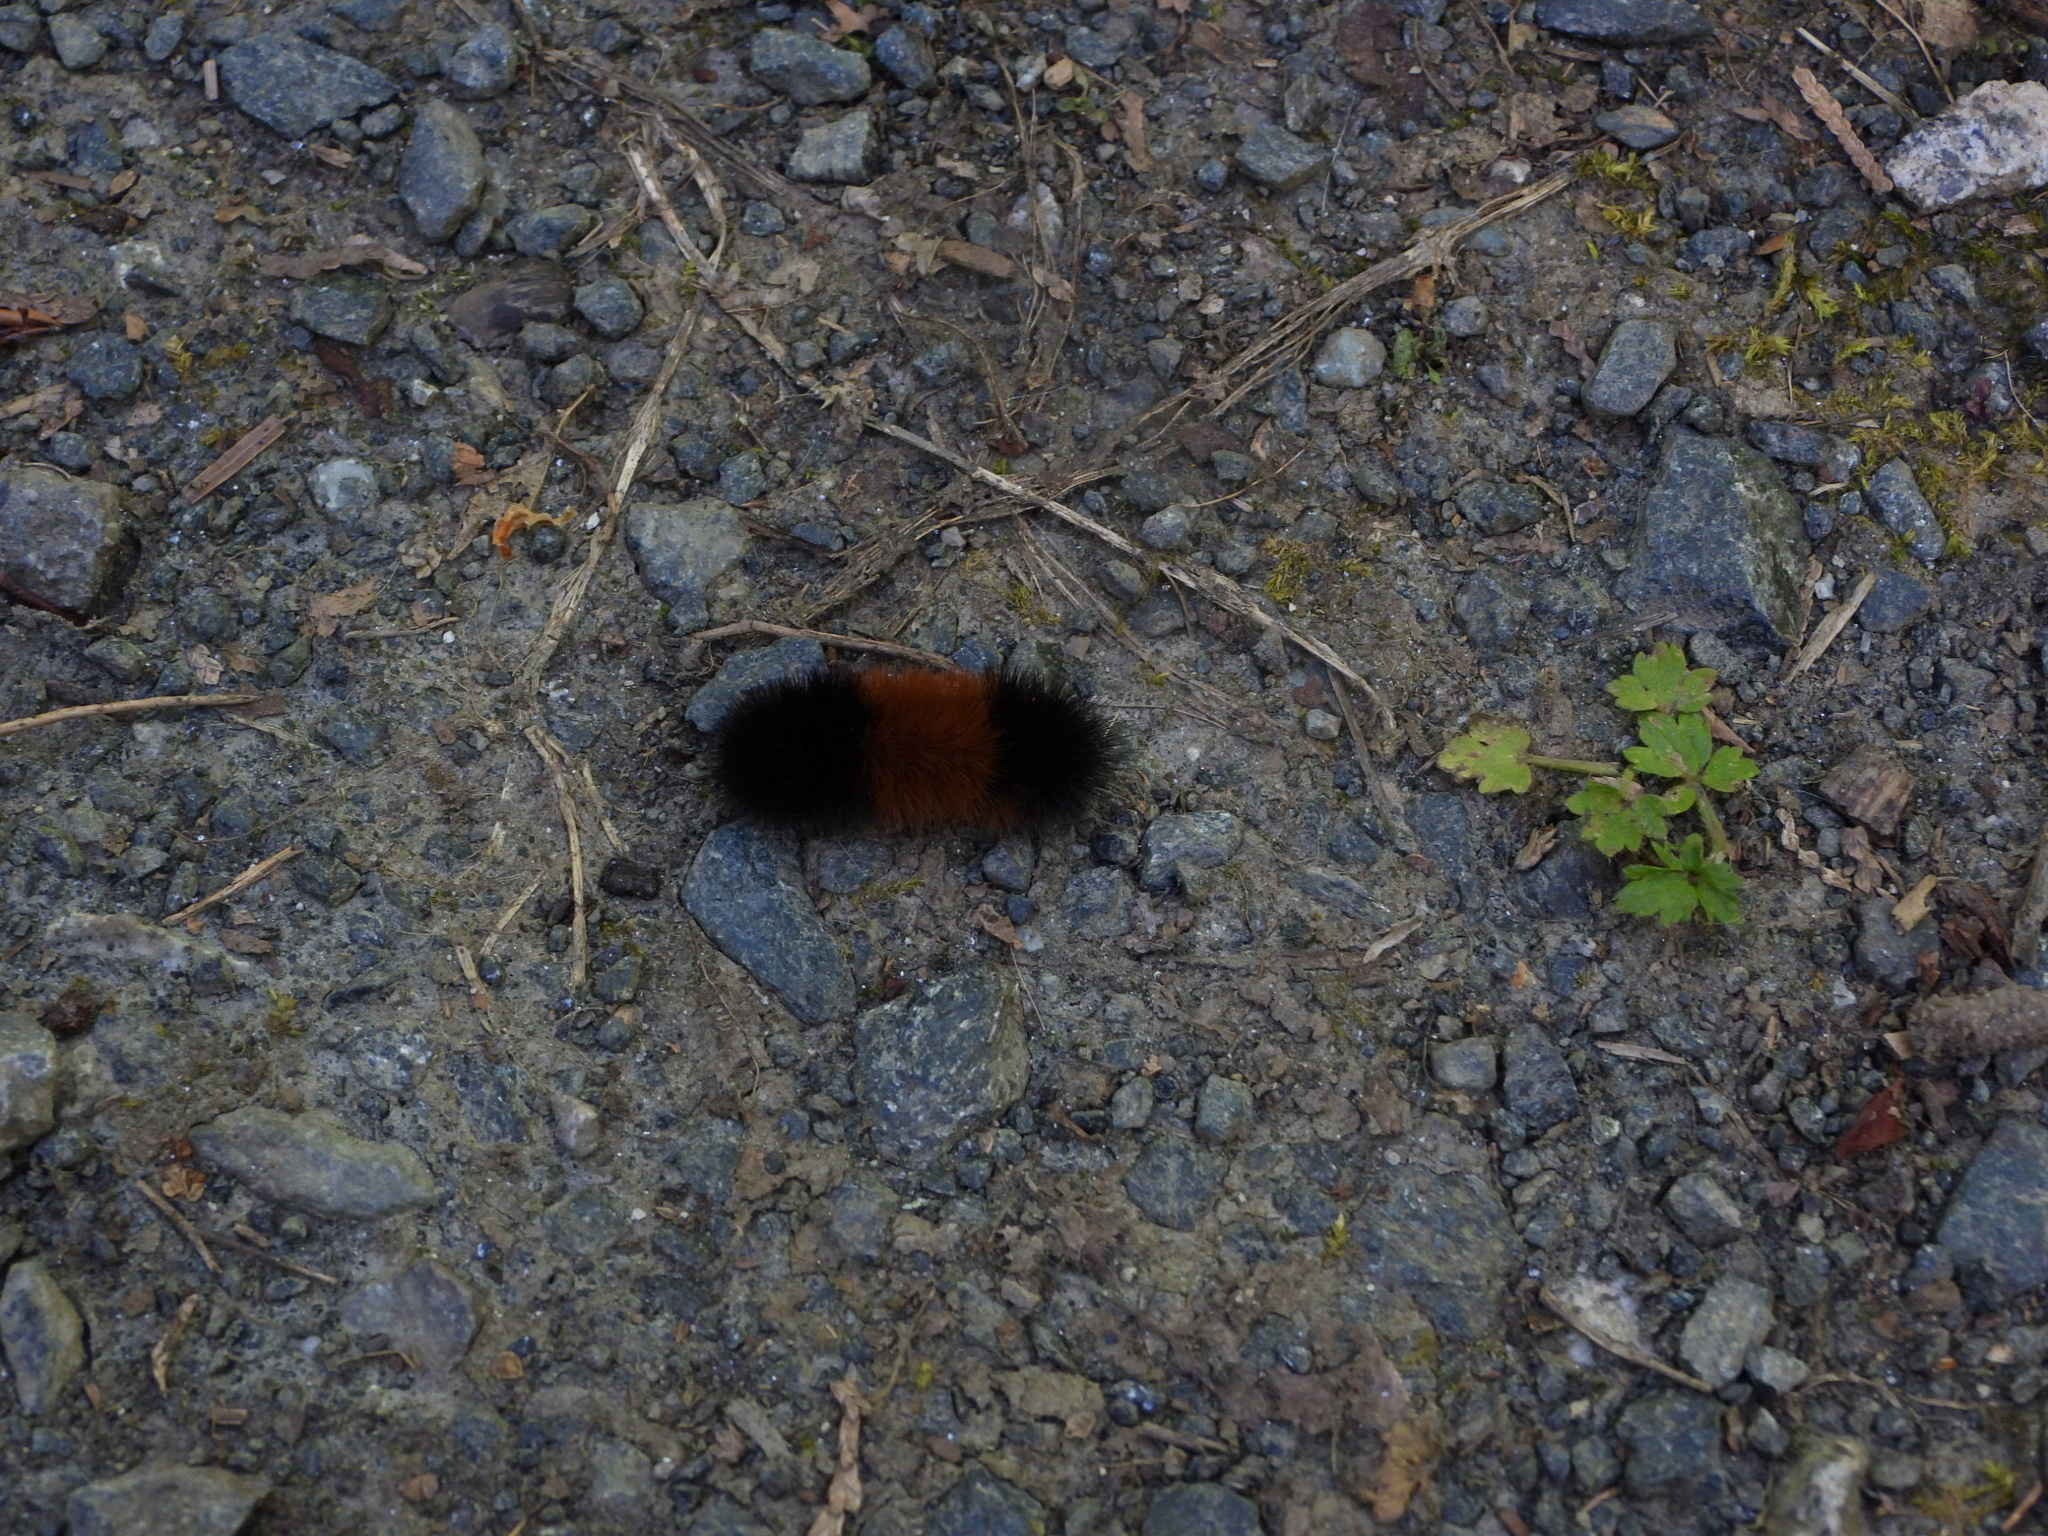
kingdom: Animalia
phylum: Arthropoda
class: Insecta
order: Lepidoptera
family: Erebidae
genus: Pyrrharctia
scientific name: Pyrrharctia isabella
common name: Isabella tiger moth
